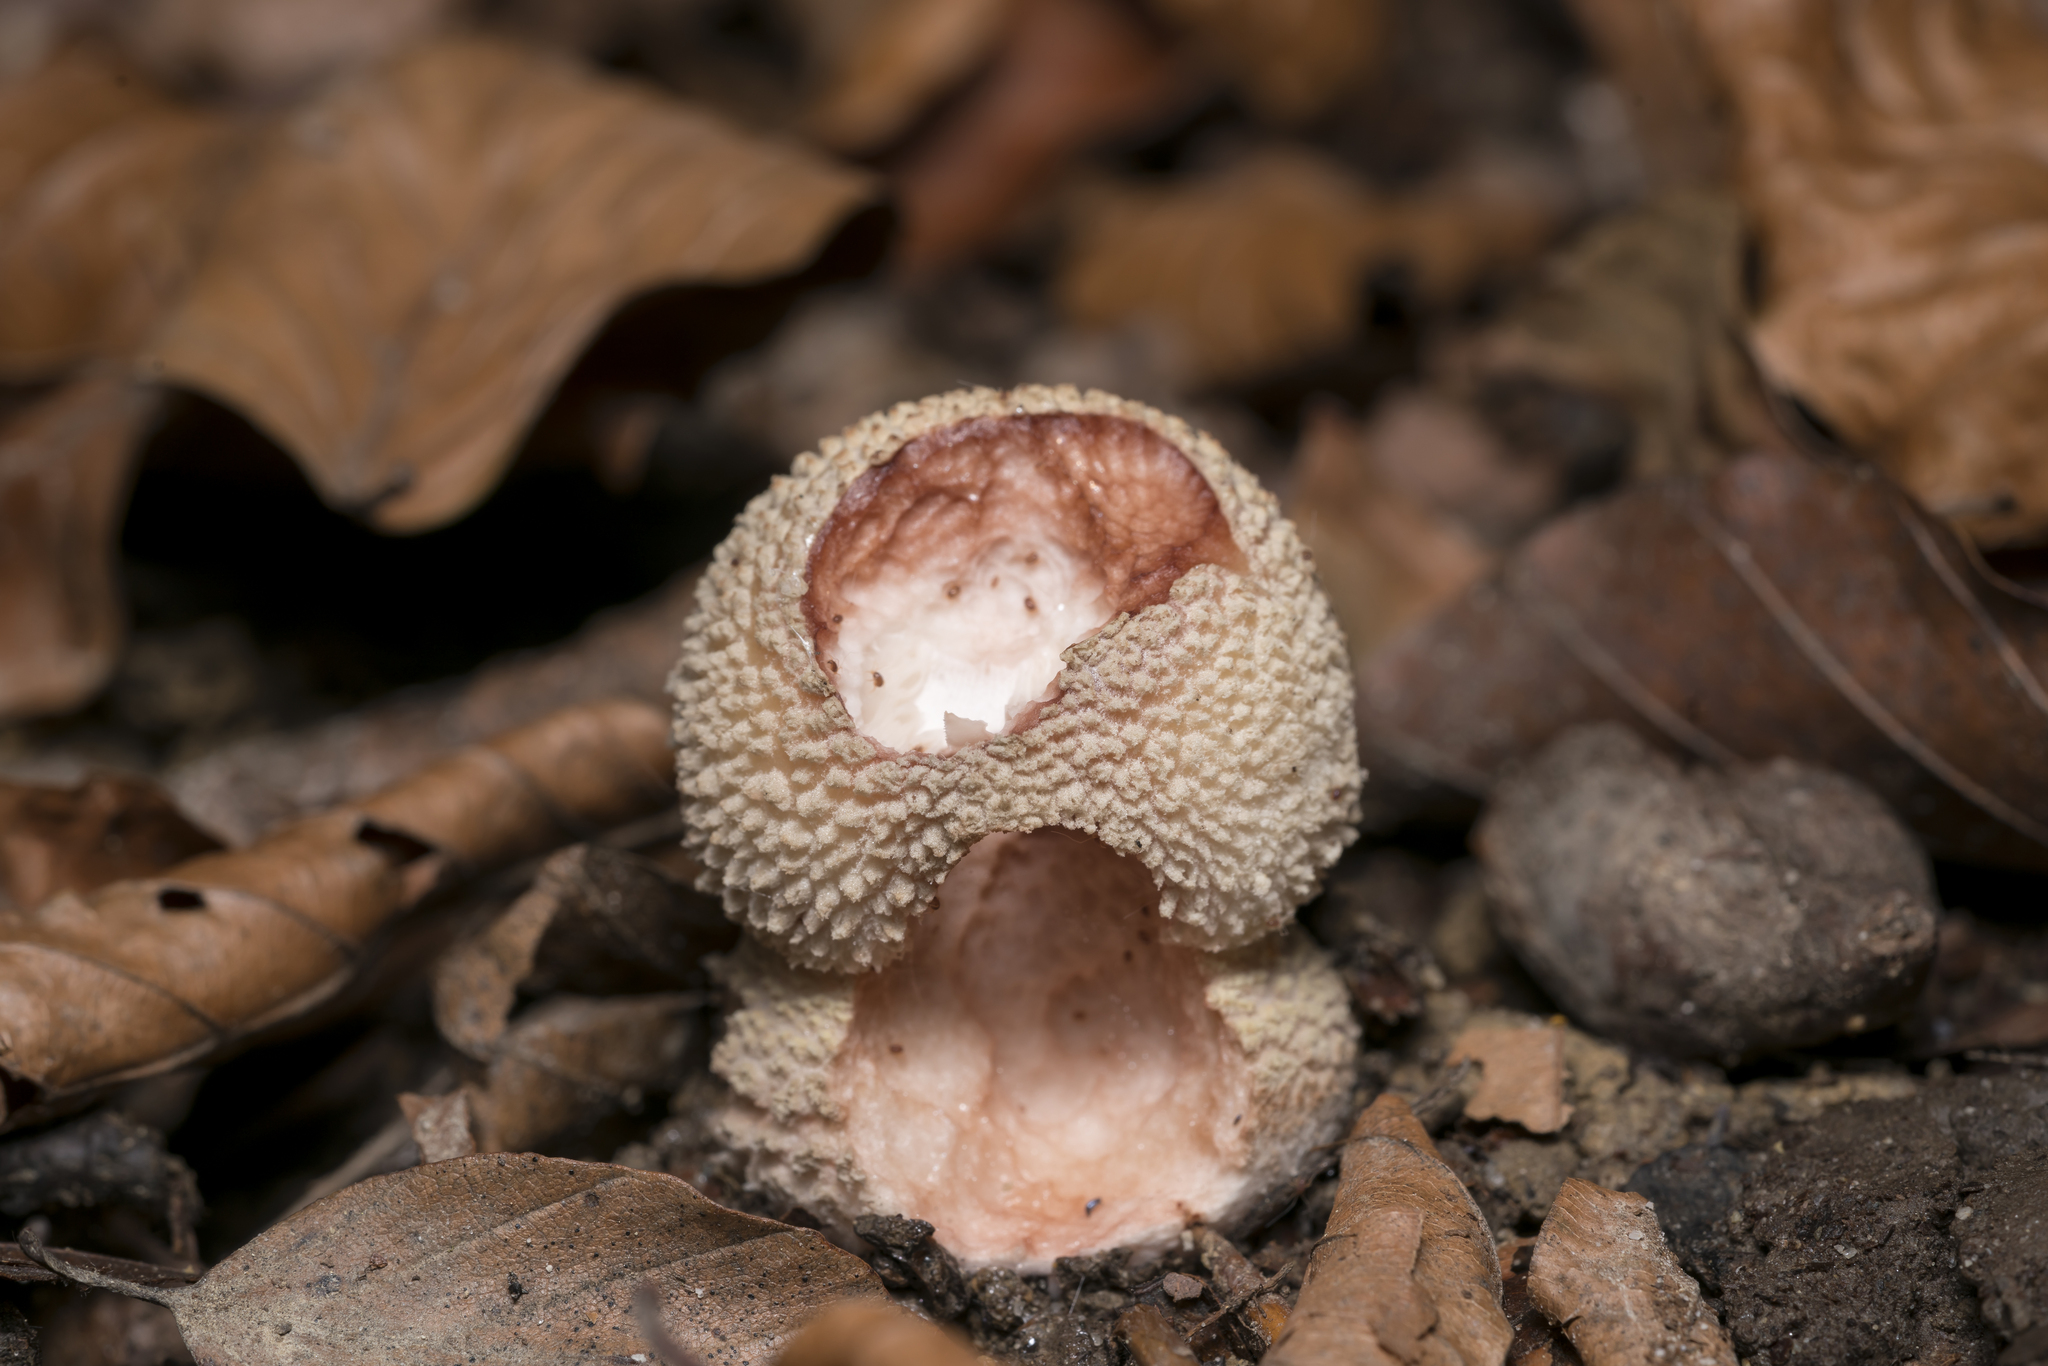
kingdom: Fungi
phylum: Basidiomycota
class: Agaricomycetes
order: Agaricales
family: Amanitaceae
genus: Amanita
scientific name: Amanita rubescens
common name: Blusher
